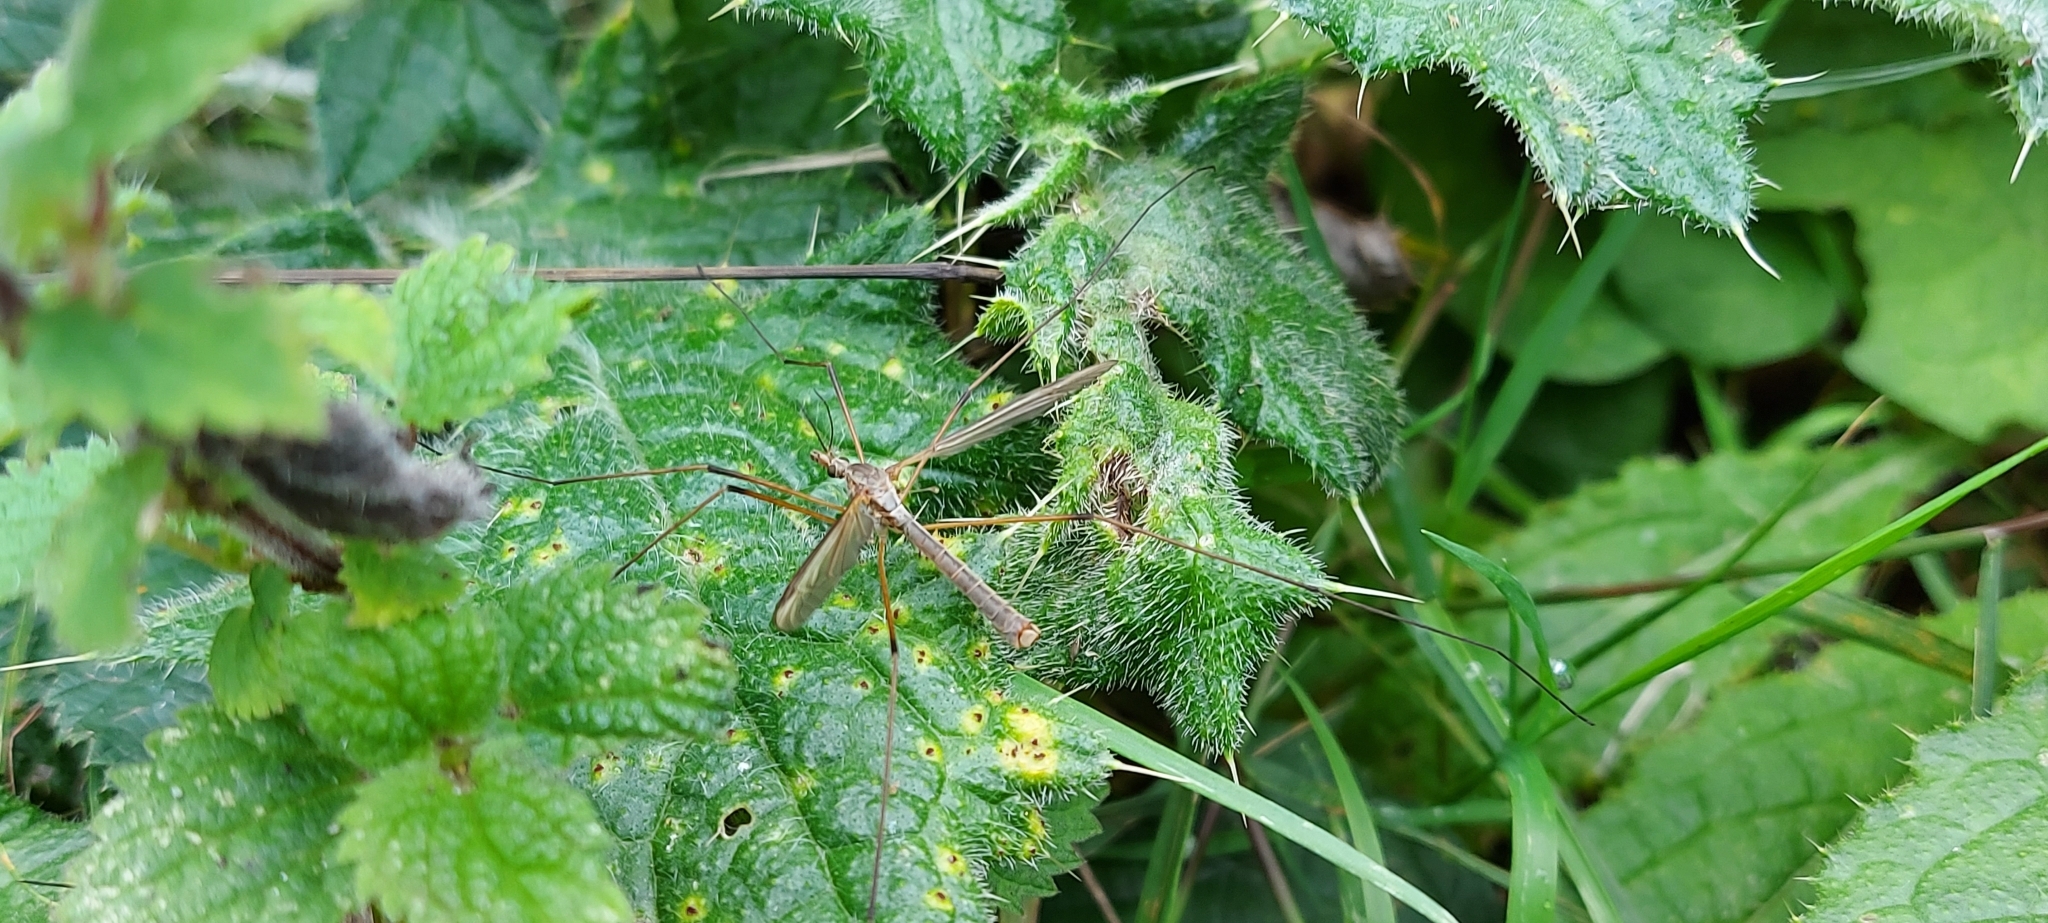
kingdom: Animalia
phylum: Arthropoda
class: Insecta
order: Diptera
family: Tipulidae
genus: Tipula
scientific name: Tipula paludosa
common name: European cranefly
